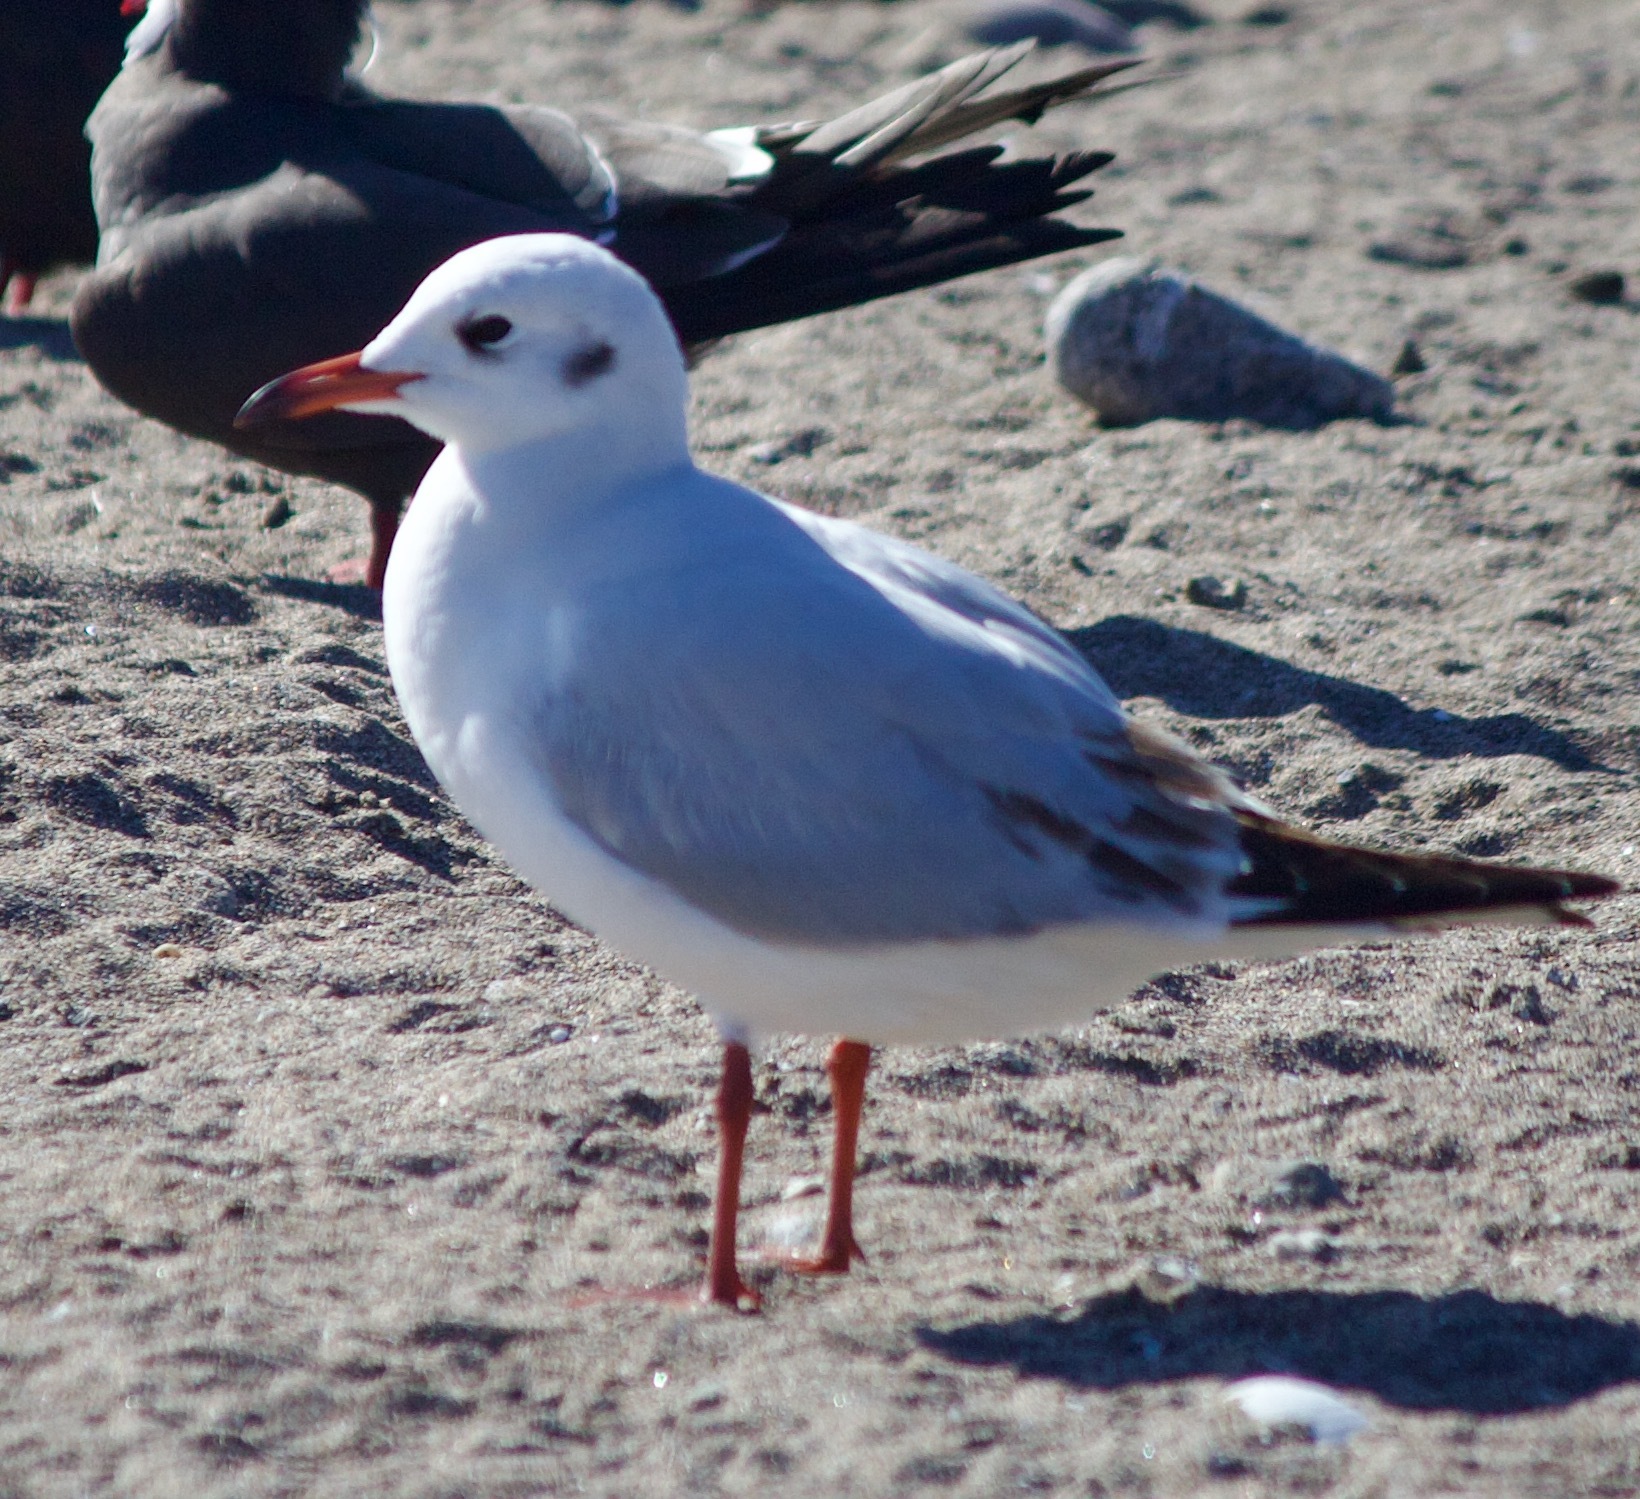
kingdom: Animalia
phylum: Chordata
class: Aves
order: Charadriiformes
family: Laridae
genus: Chroicocephalus
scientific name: Chroicocephalus maculipennis
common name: Brown-hooded gull
